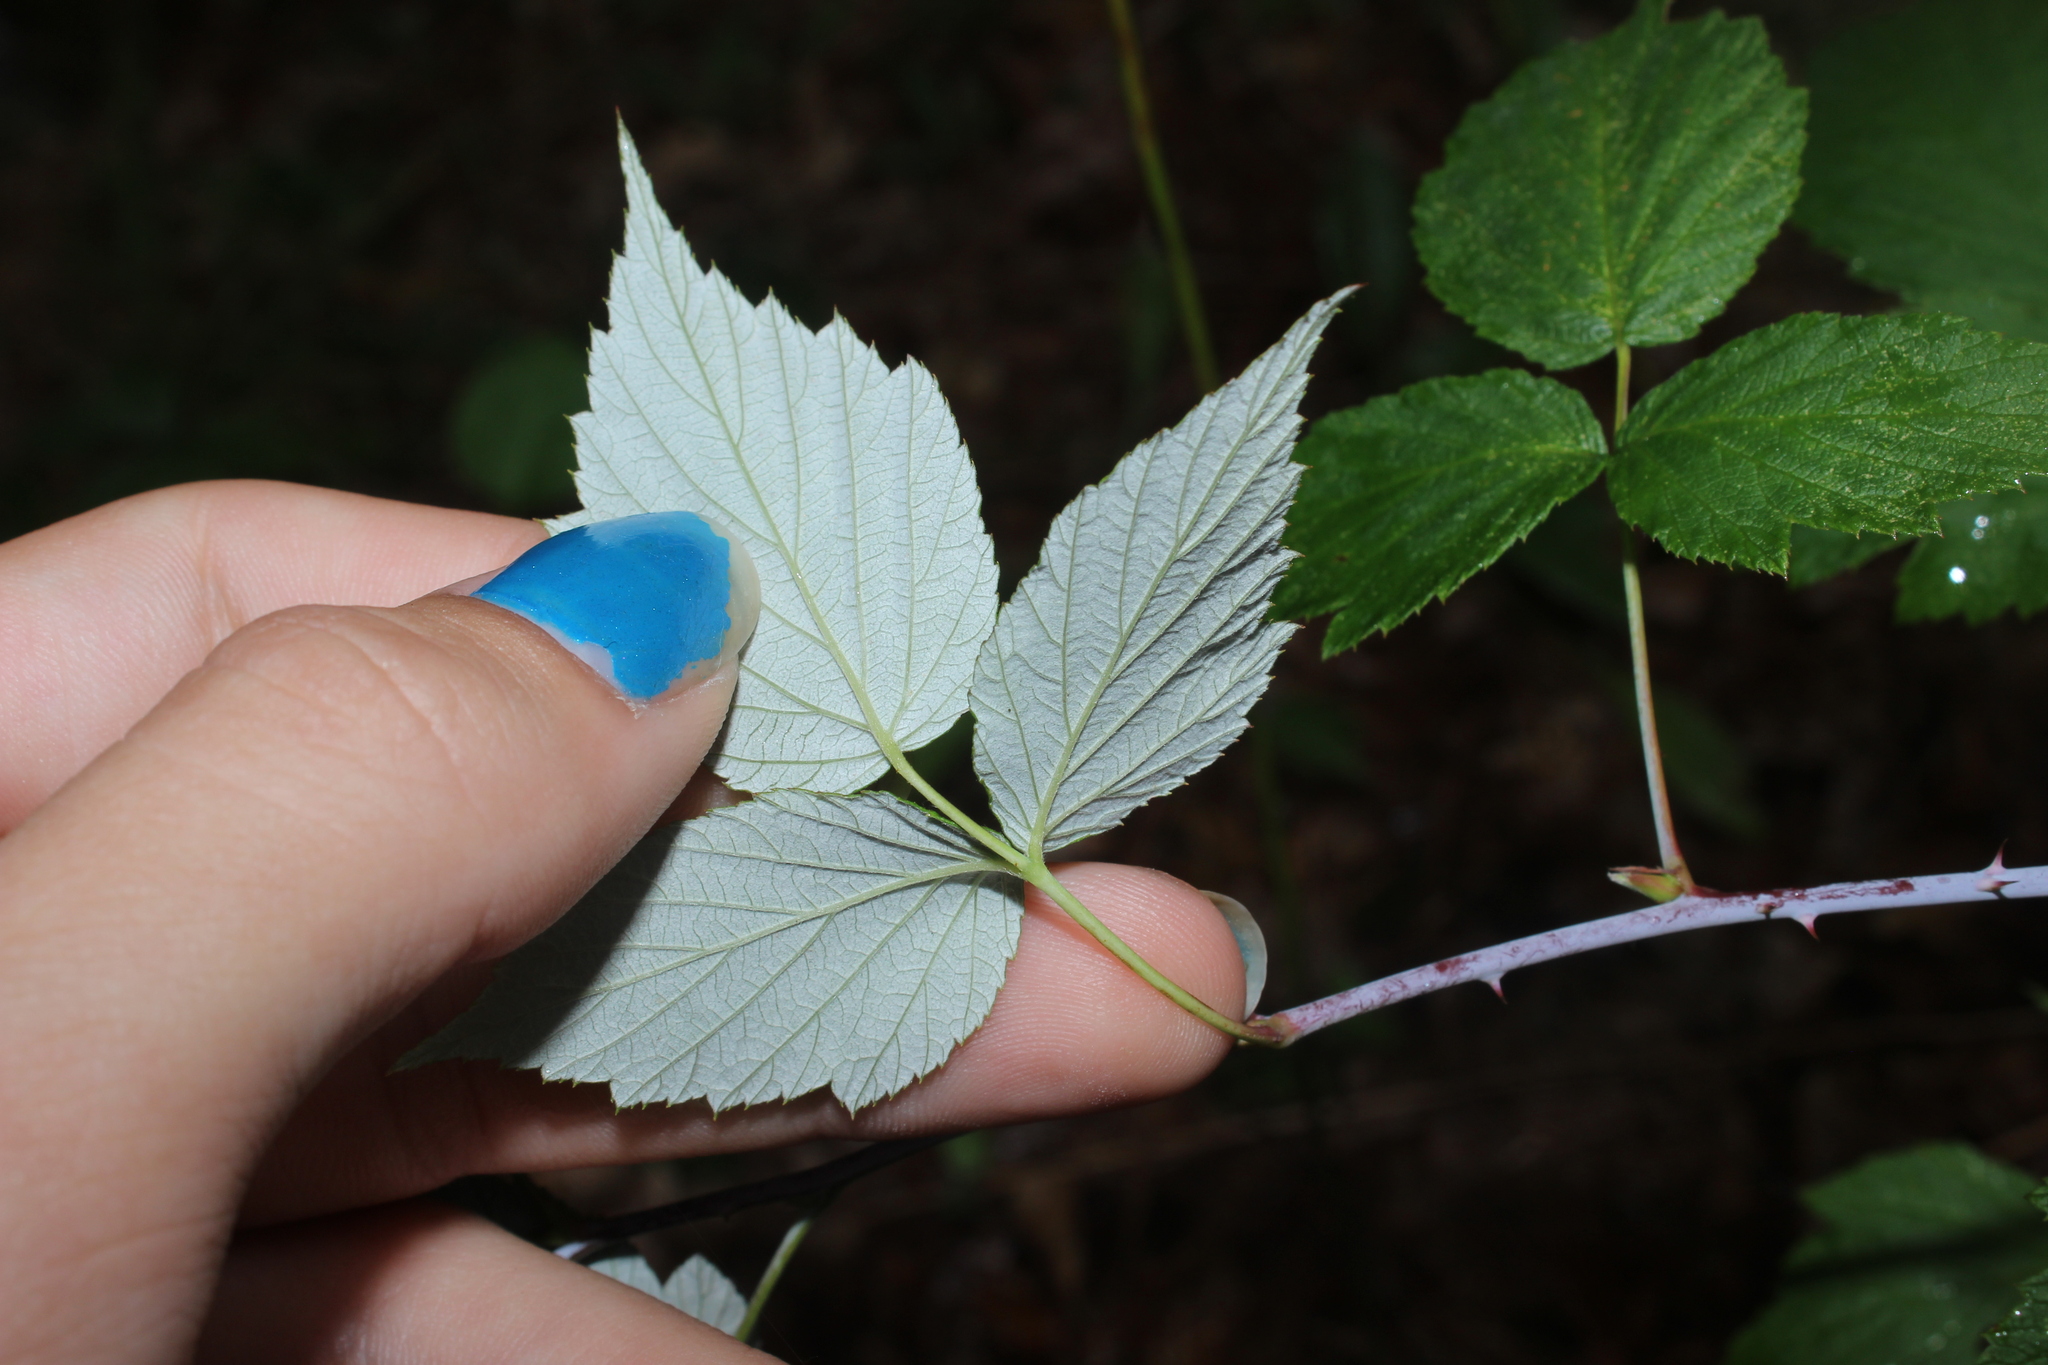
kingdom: Plantae
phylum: Tracheophyta
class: Magnoliopsida
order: Rosales
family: Rosaceae
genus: Rubus
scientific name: Rubus occidentalis
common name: Black raspberry
